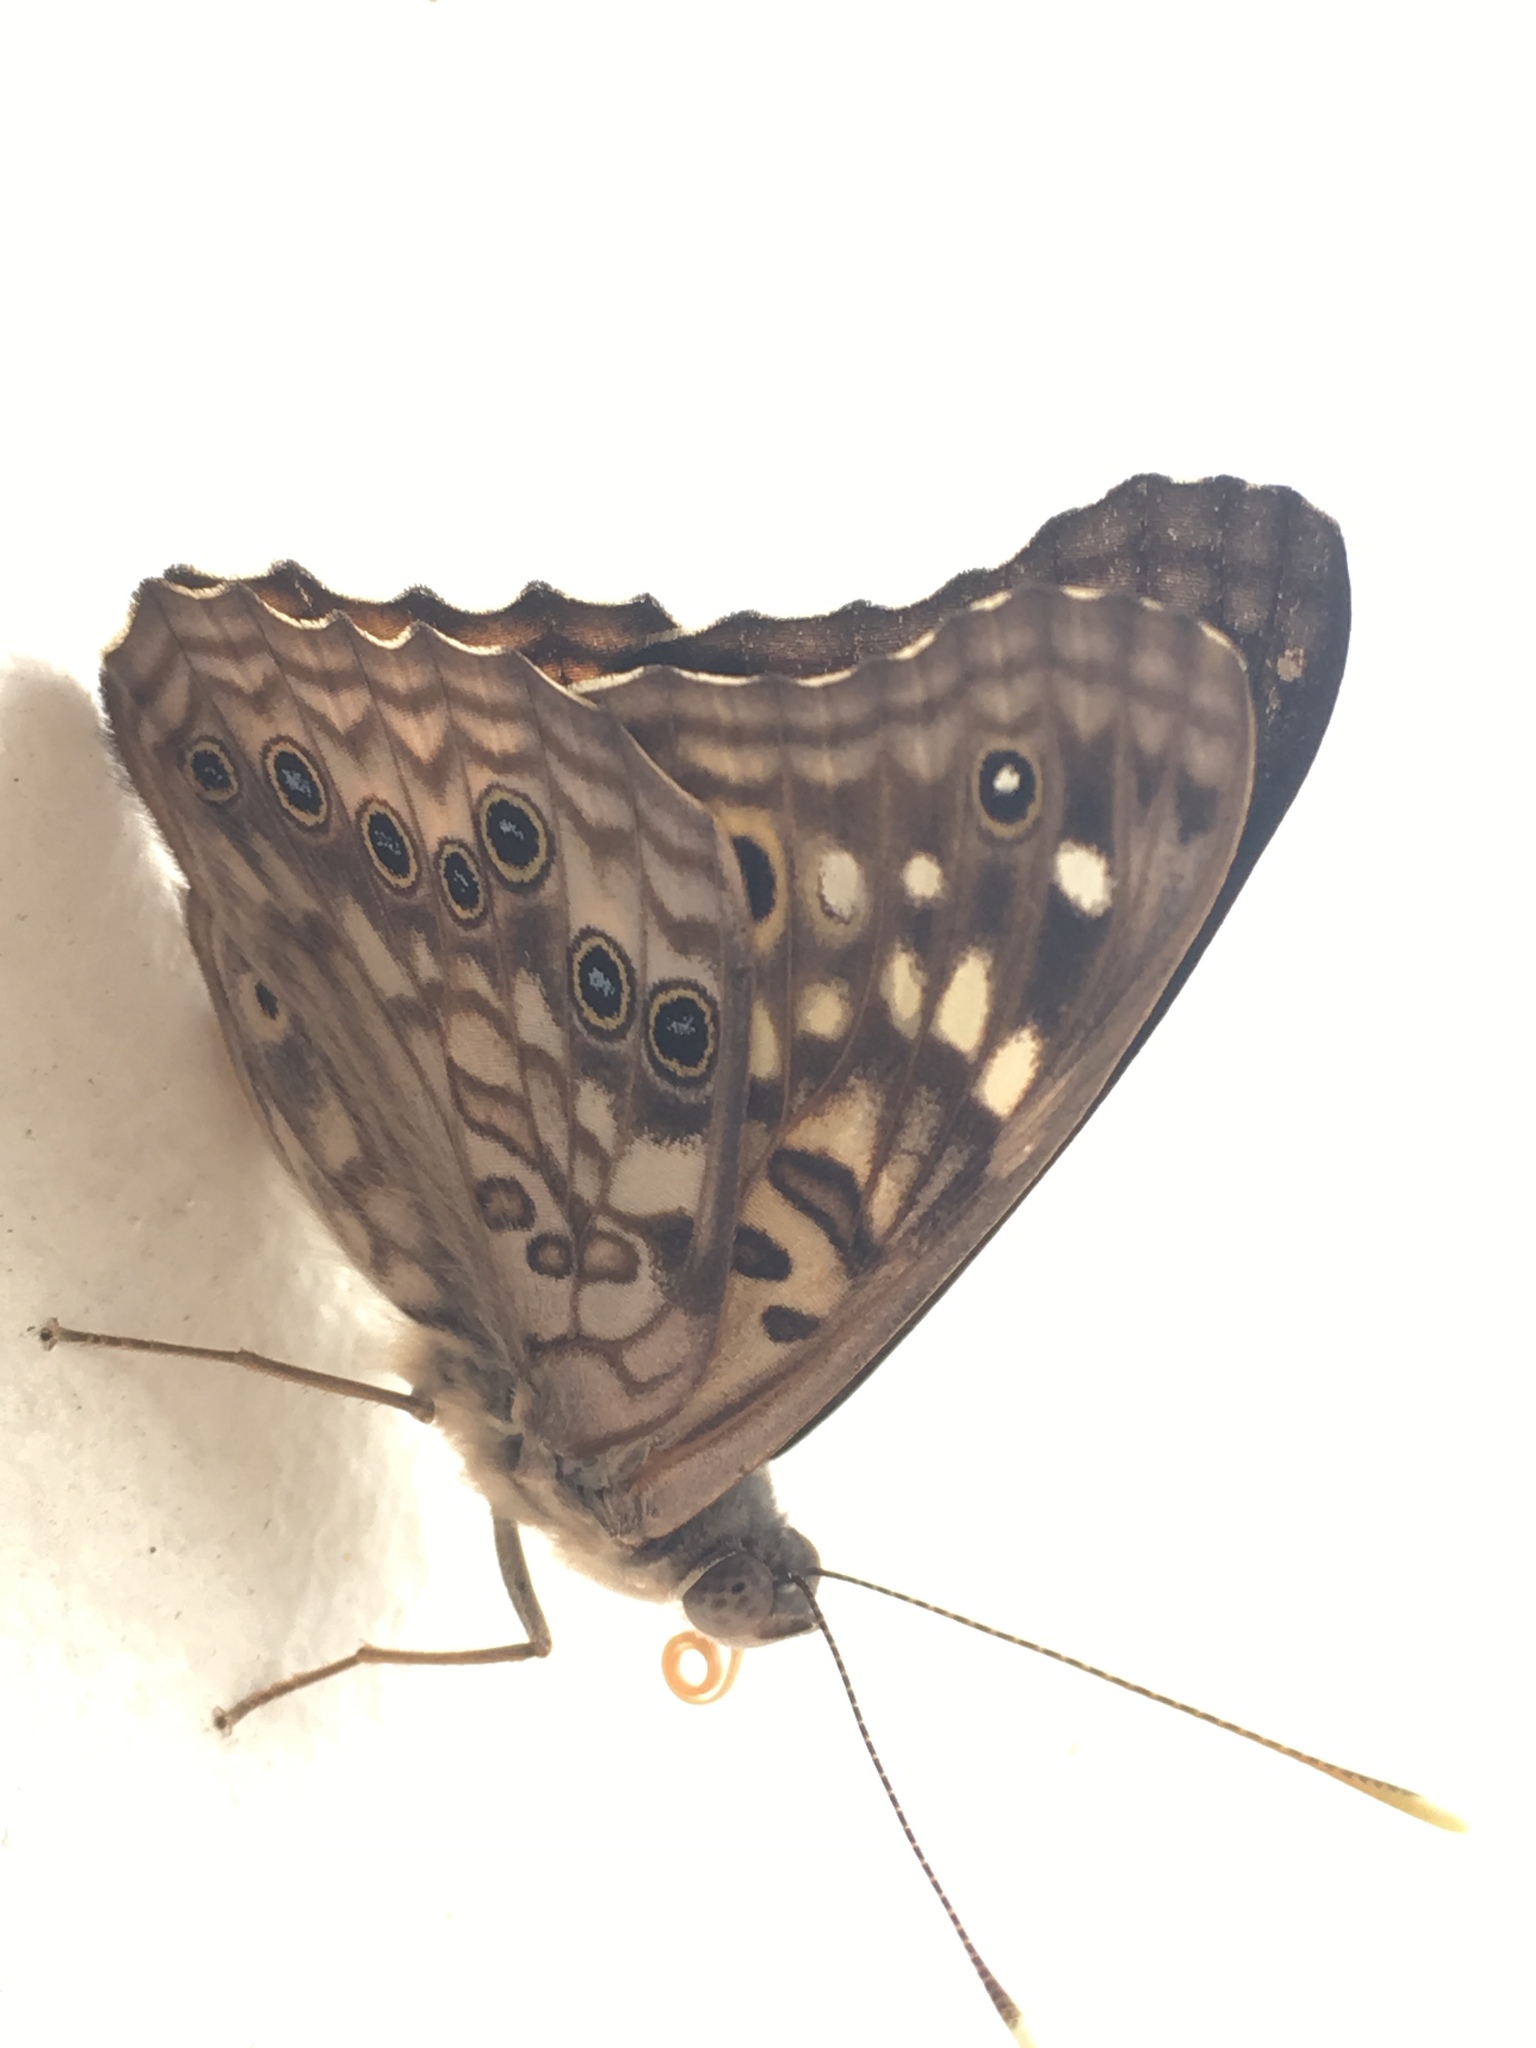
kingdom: Animalia
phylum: Arthropoda
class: Insecta
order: Lepidoptera
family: Nymphalidae
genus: Asterocampa
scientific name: Asterocampa celtis
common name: Hackberry emperor
